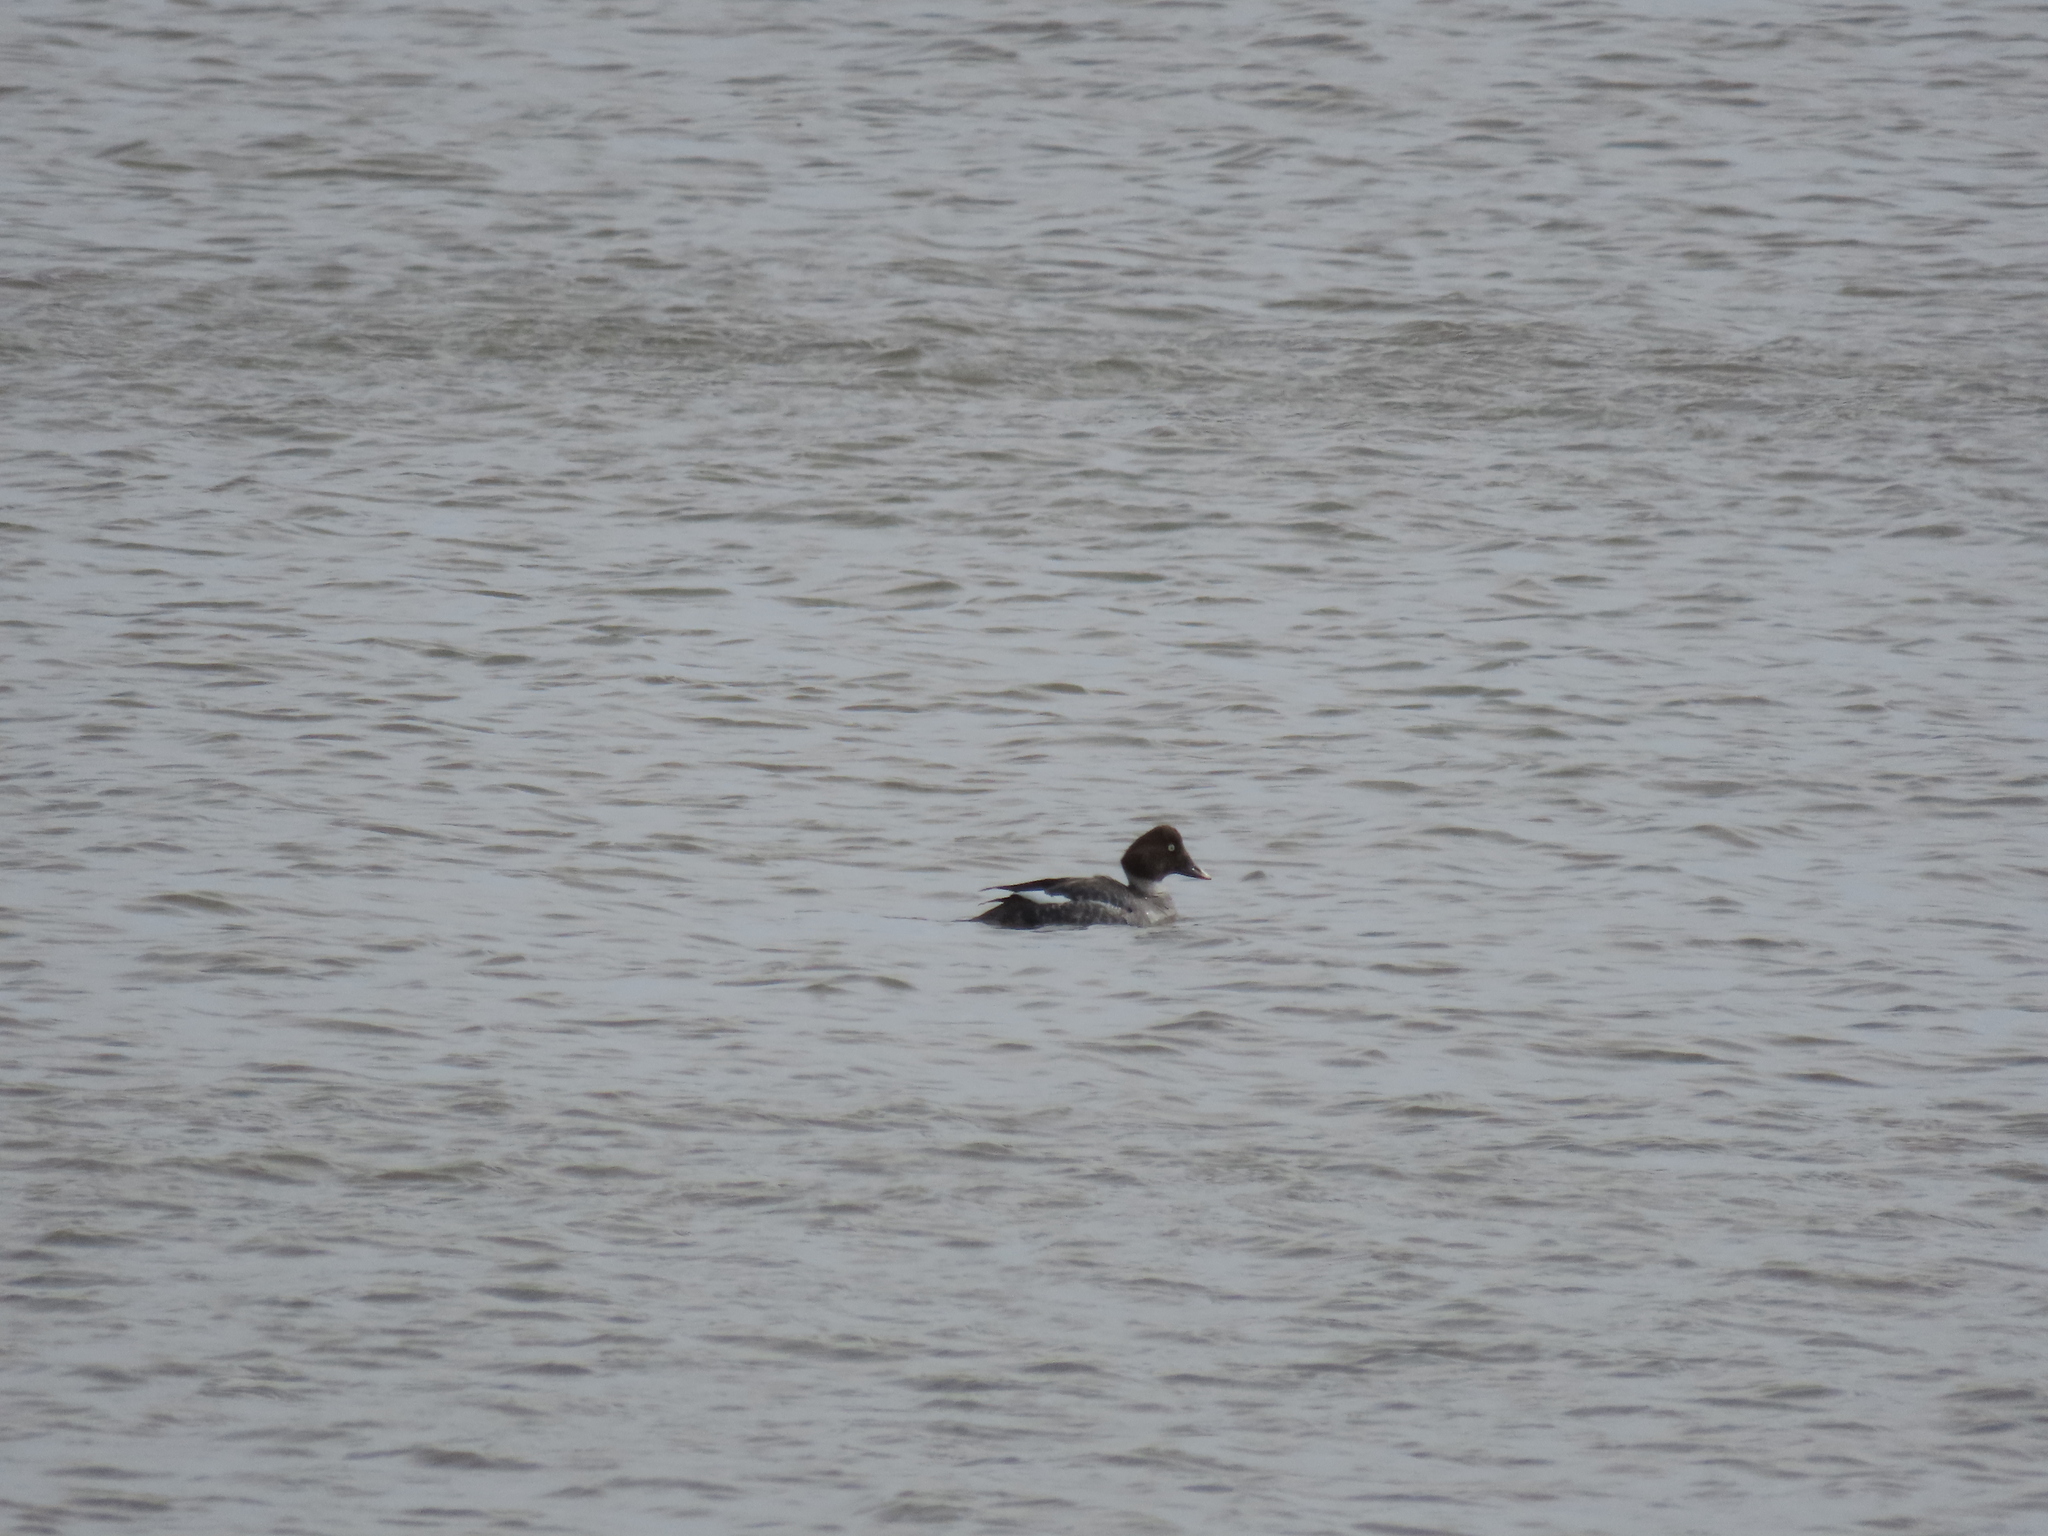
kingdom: Animalia
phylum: Chordata
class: Aves
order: Anseriformes
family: Anatidae
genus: Bucephala
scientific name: Bucephala clangula
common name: Common goldeneye
